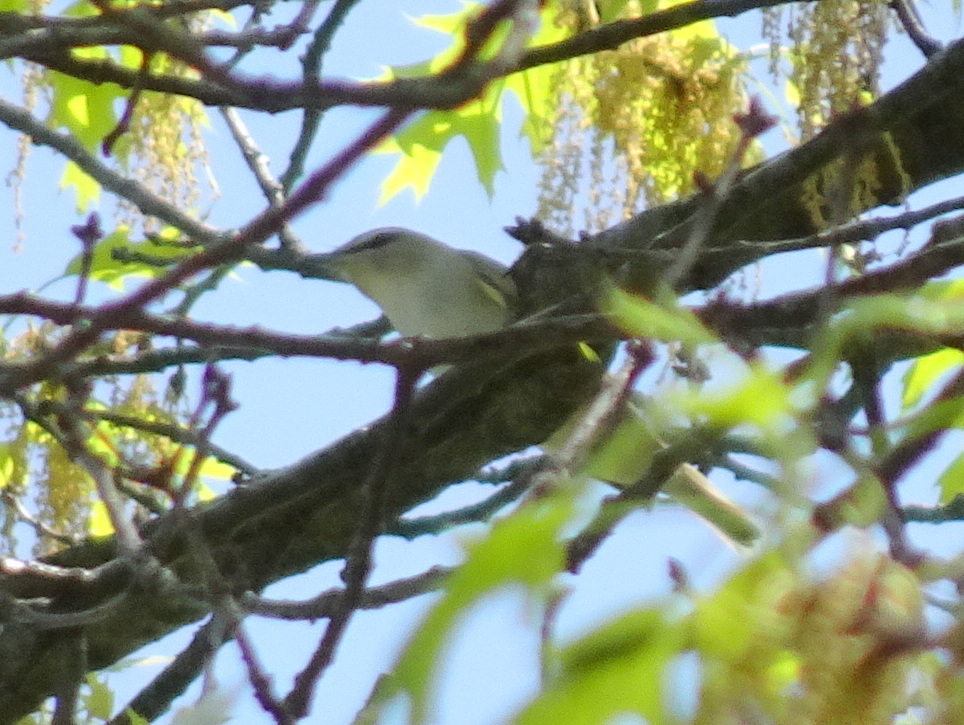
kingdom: Animalia
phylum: Chordata
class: Aves
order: Passeriformes
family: Vireonidae
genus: Vireo
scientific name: Vireo olivaceus
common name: Red-eyed vireo
